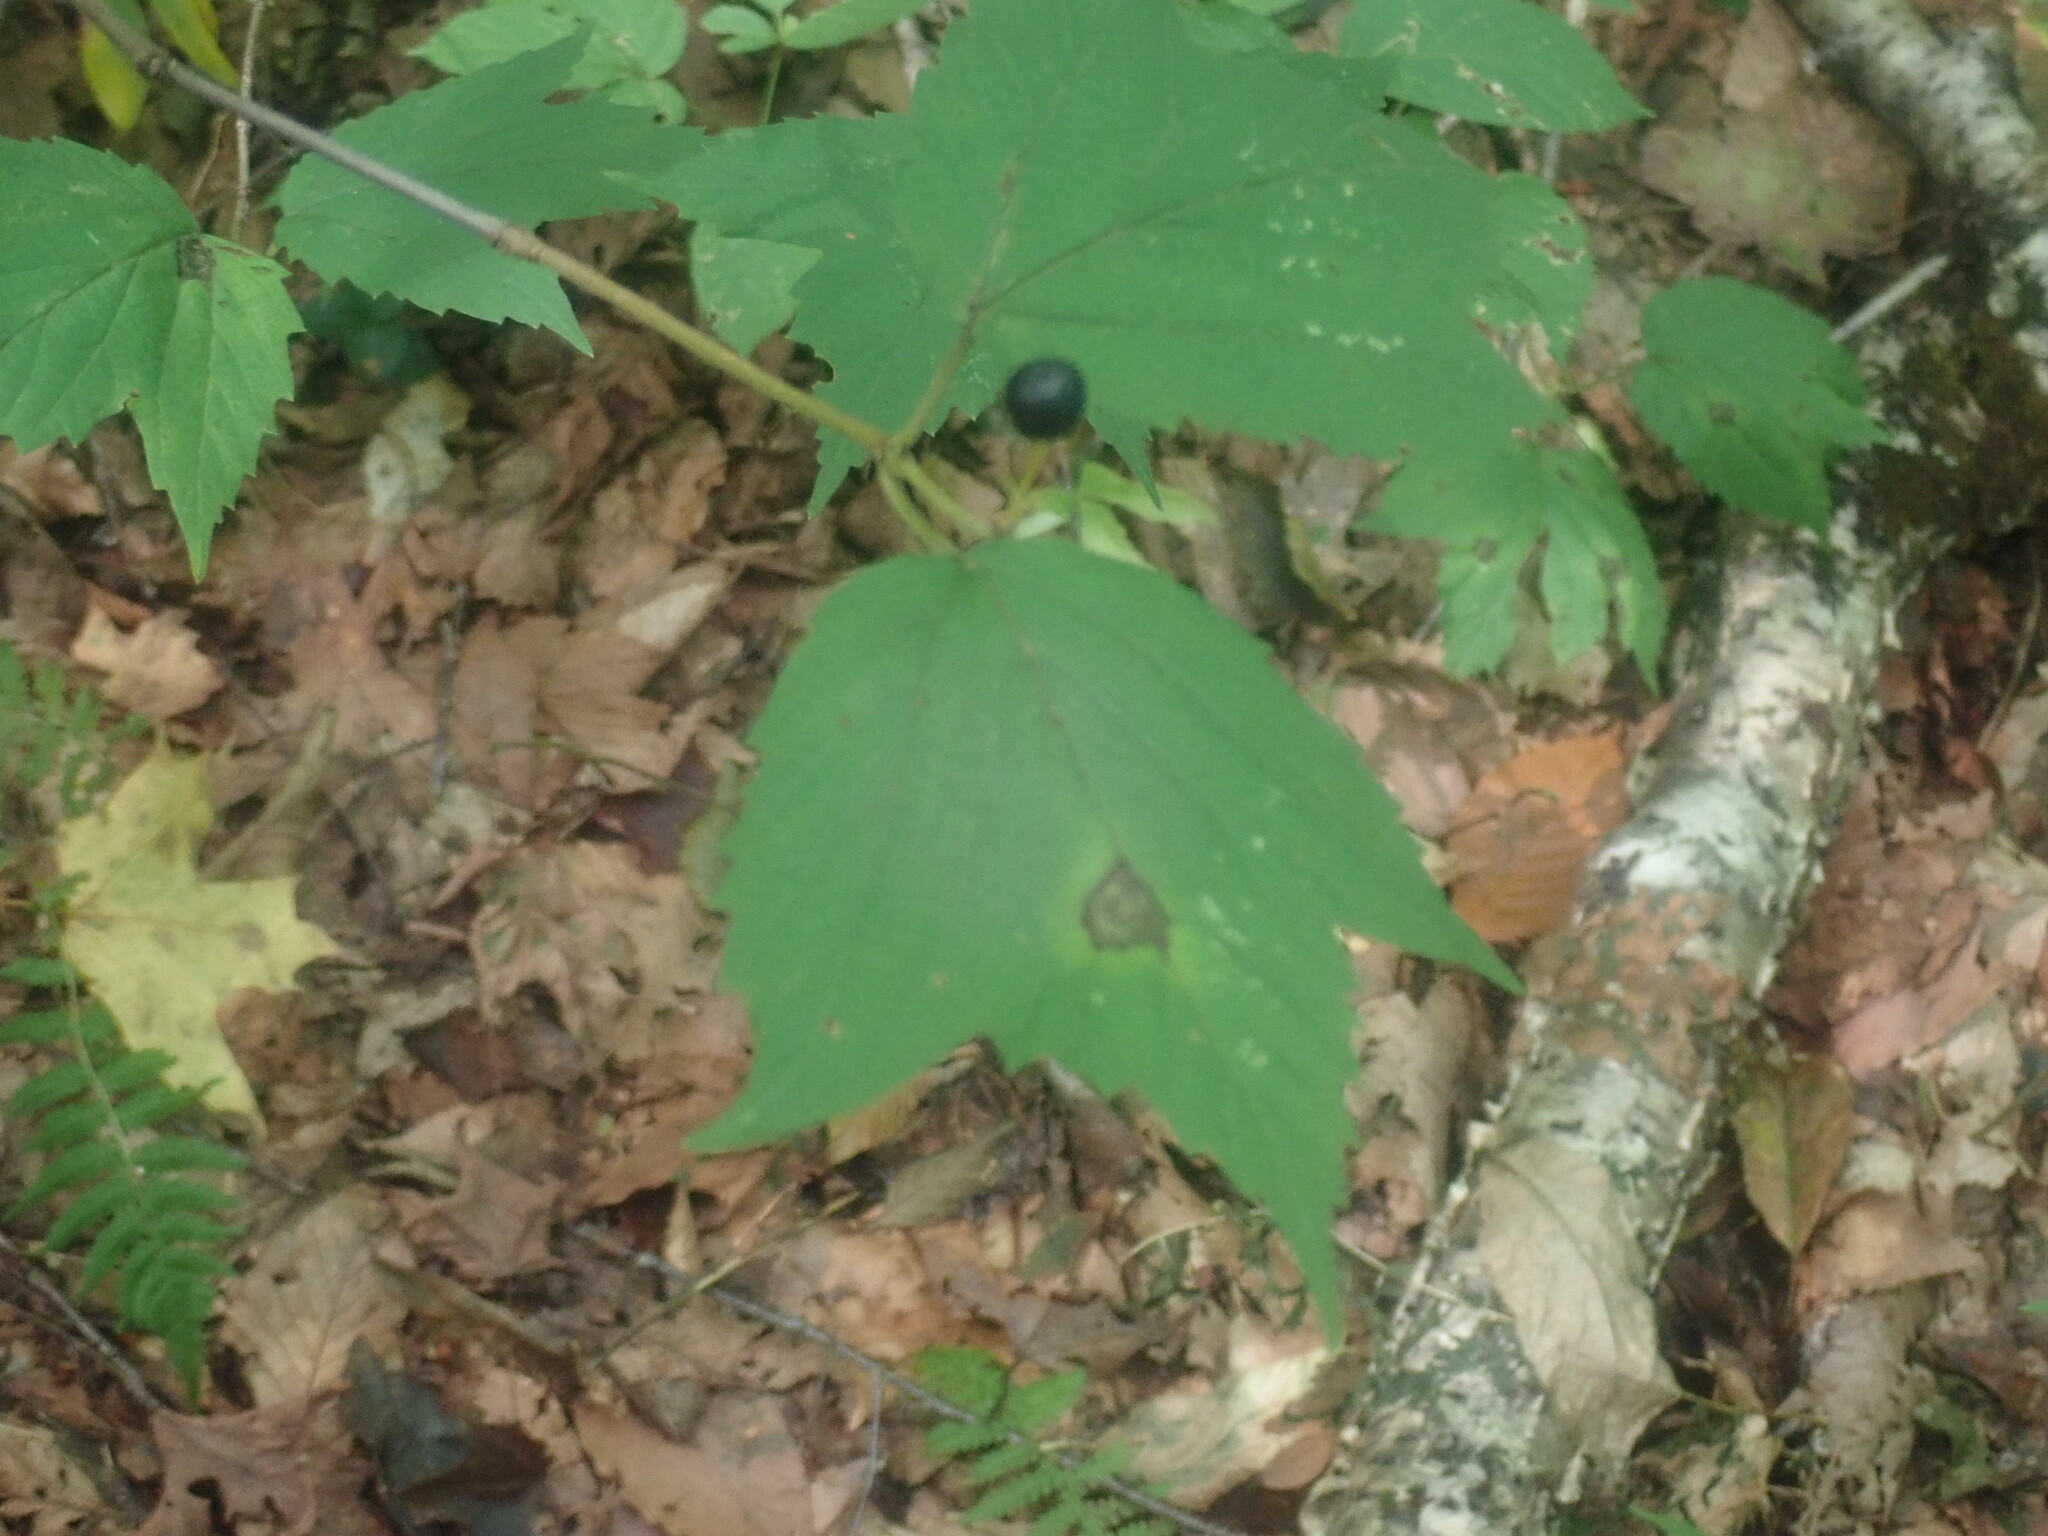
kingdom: Plantae
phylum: Tracheophyta
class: Magnoliopsida
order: Dipsacales
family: Viburnaceae
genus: Viburnum
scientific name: Viburnum acerifolium
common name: Dockmackie
